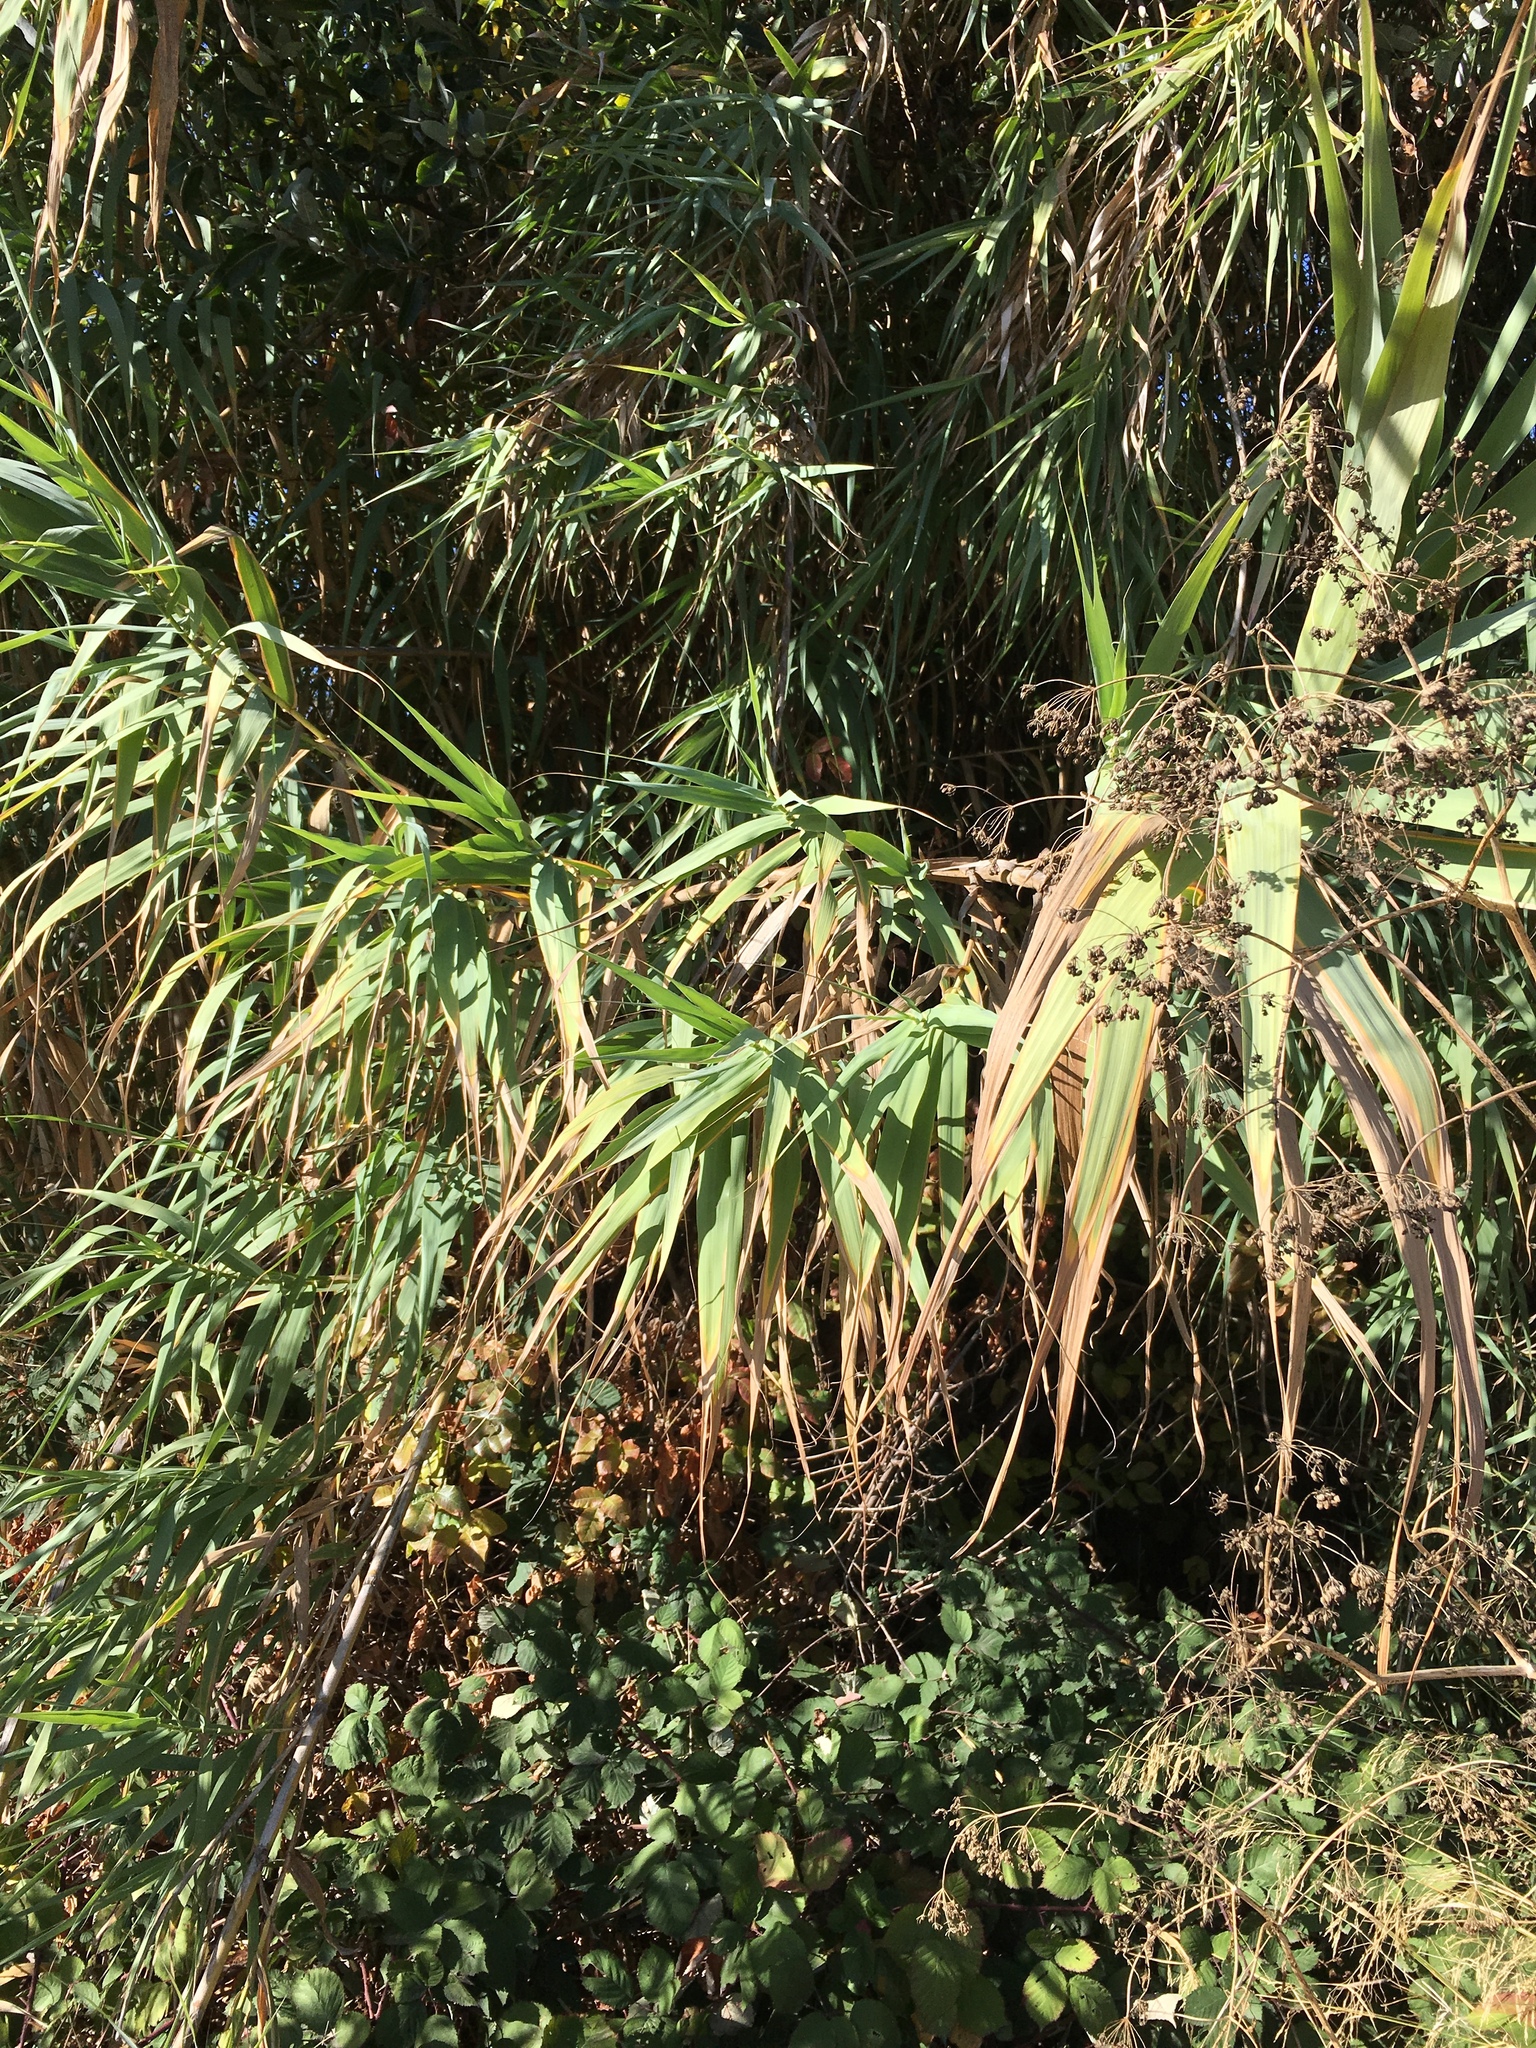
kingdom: Plantae
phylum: Tracheophyta
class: Liliopsida
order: Poales
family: Poaceae
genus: Arundo
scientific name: Arundo donax
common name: Giant reed
